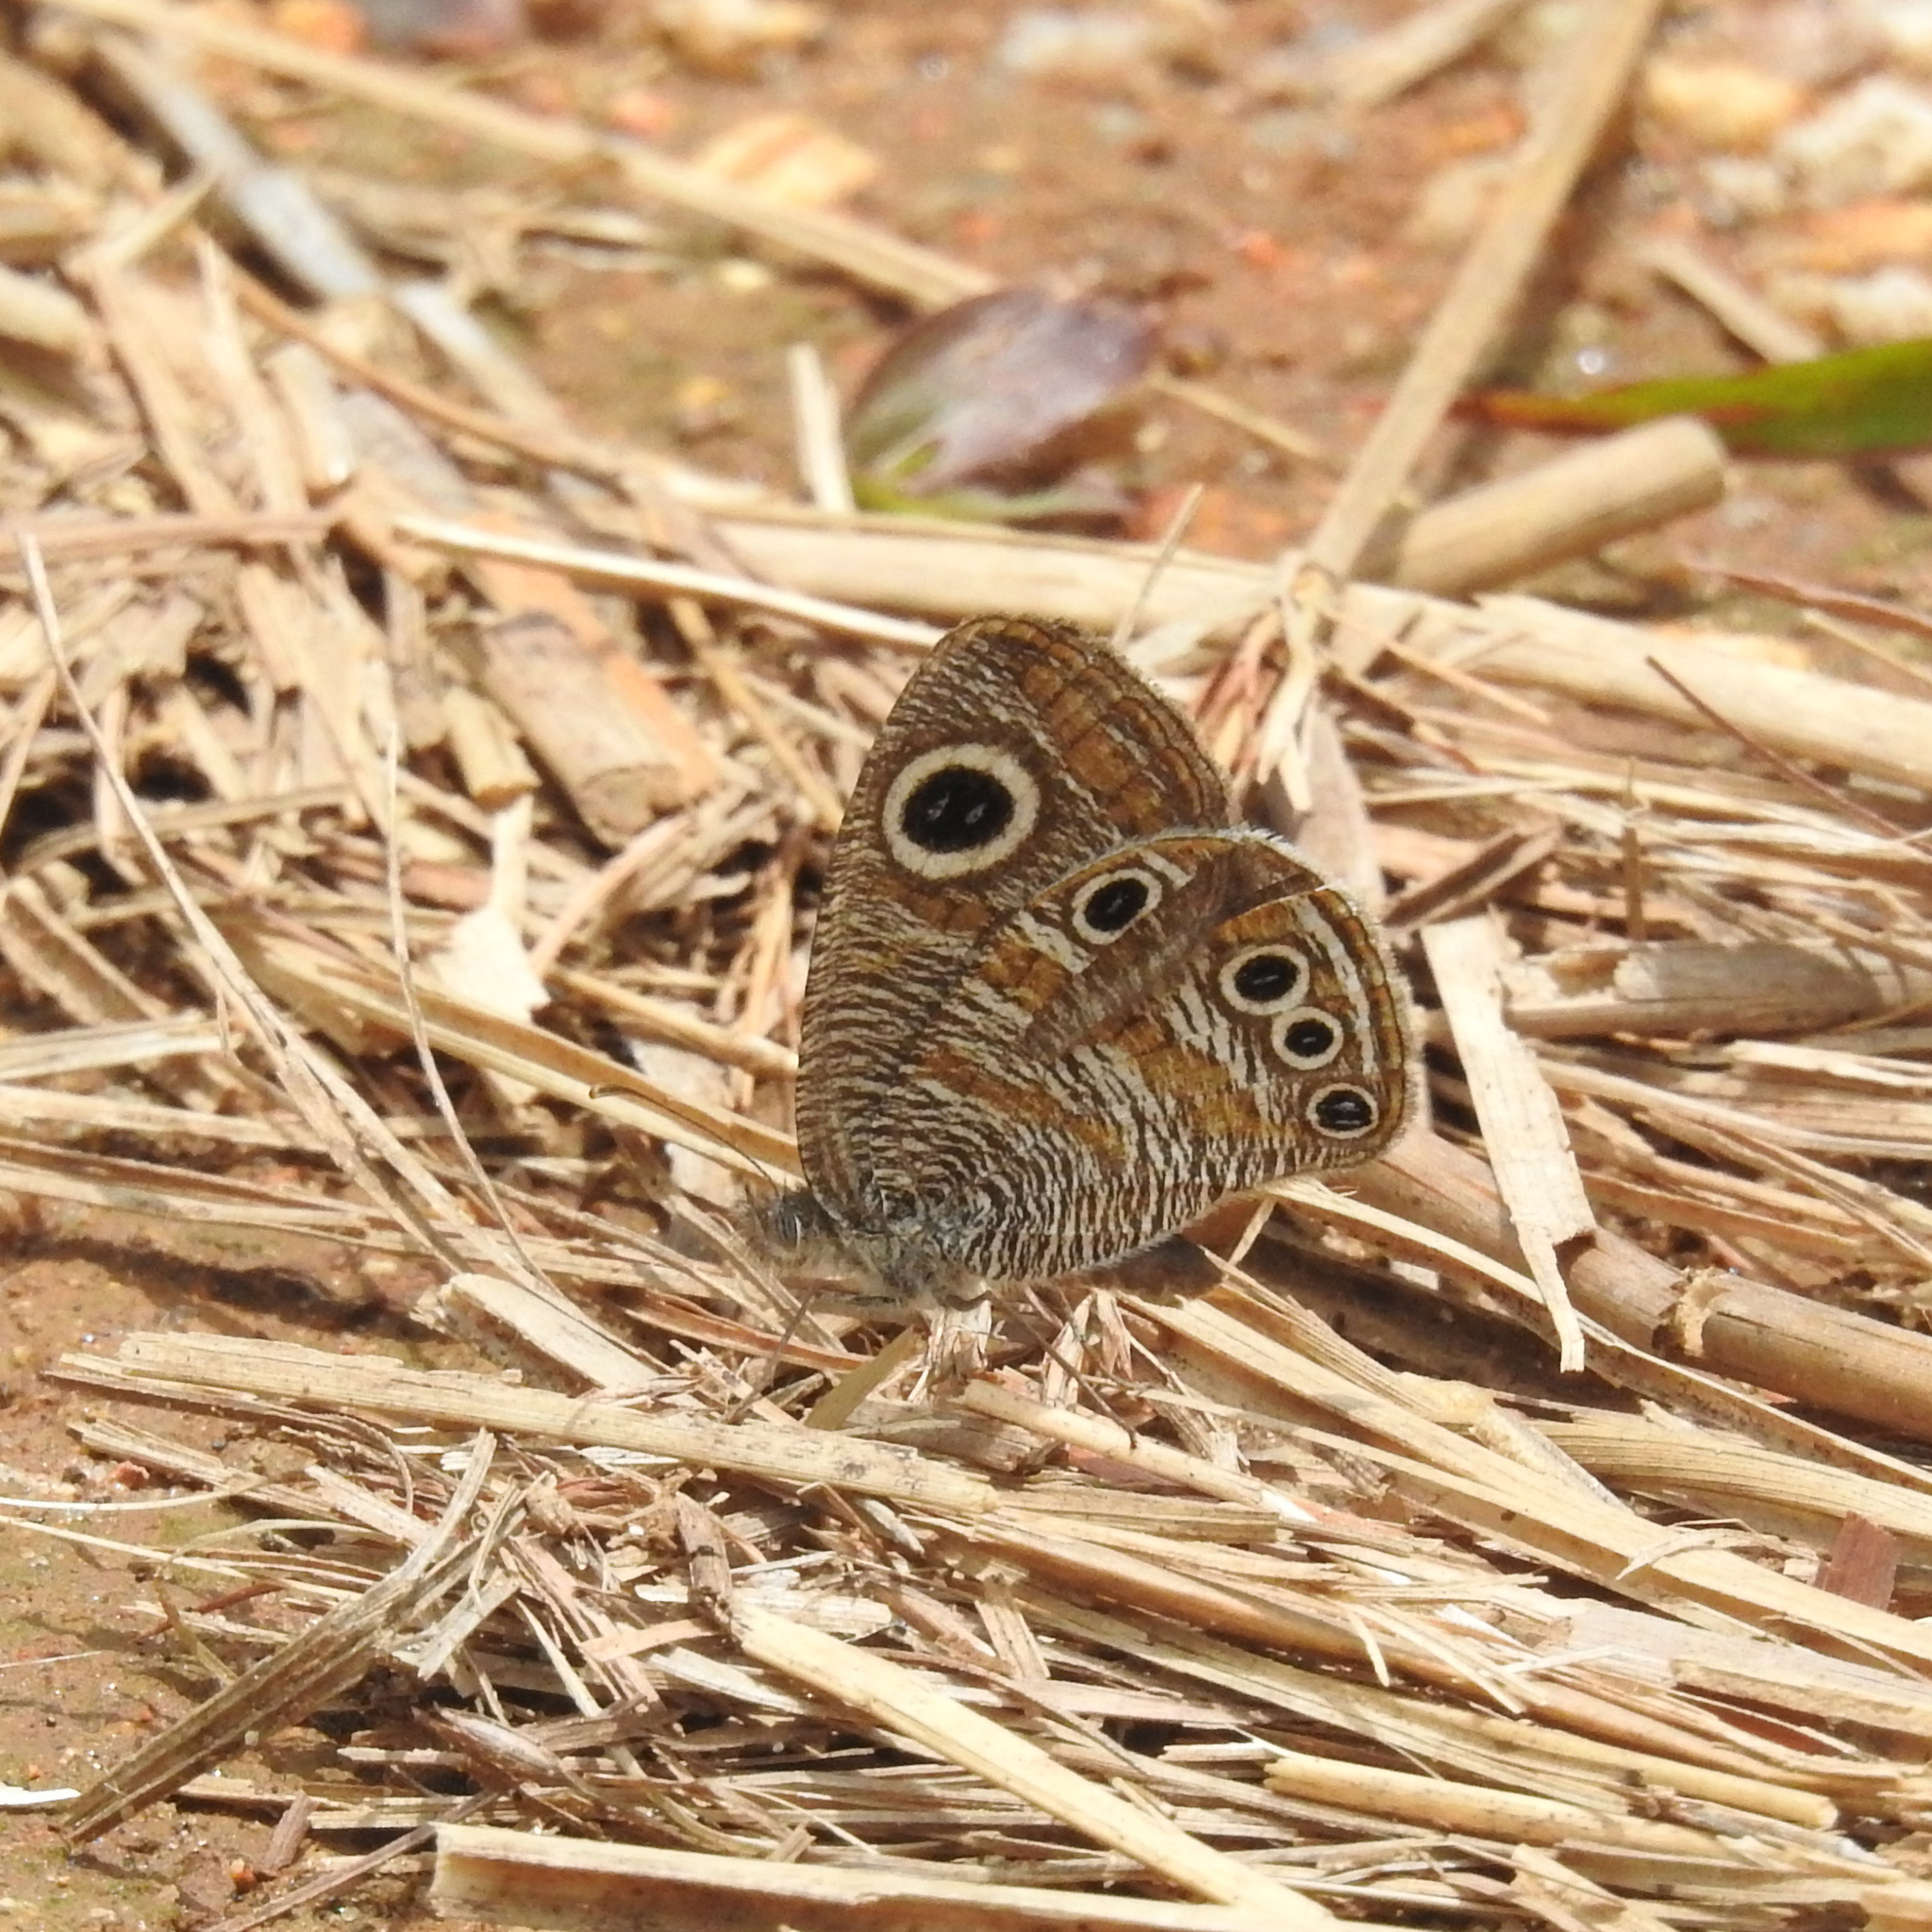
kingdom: Animalia
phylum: Arthropoda
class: Insecta
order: Lepidoptera
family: Nymphalidae
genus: Ypthima
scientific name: Ypthima chenu
